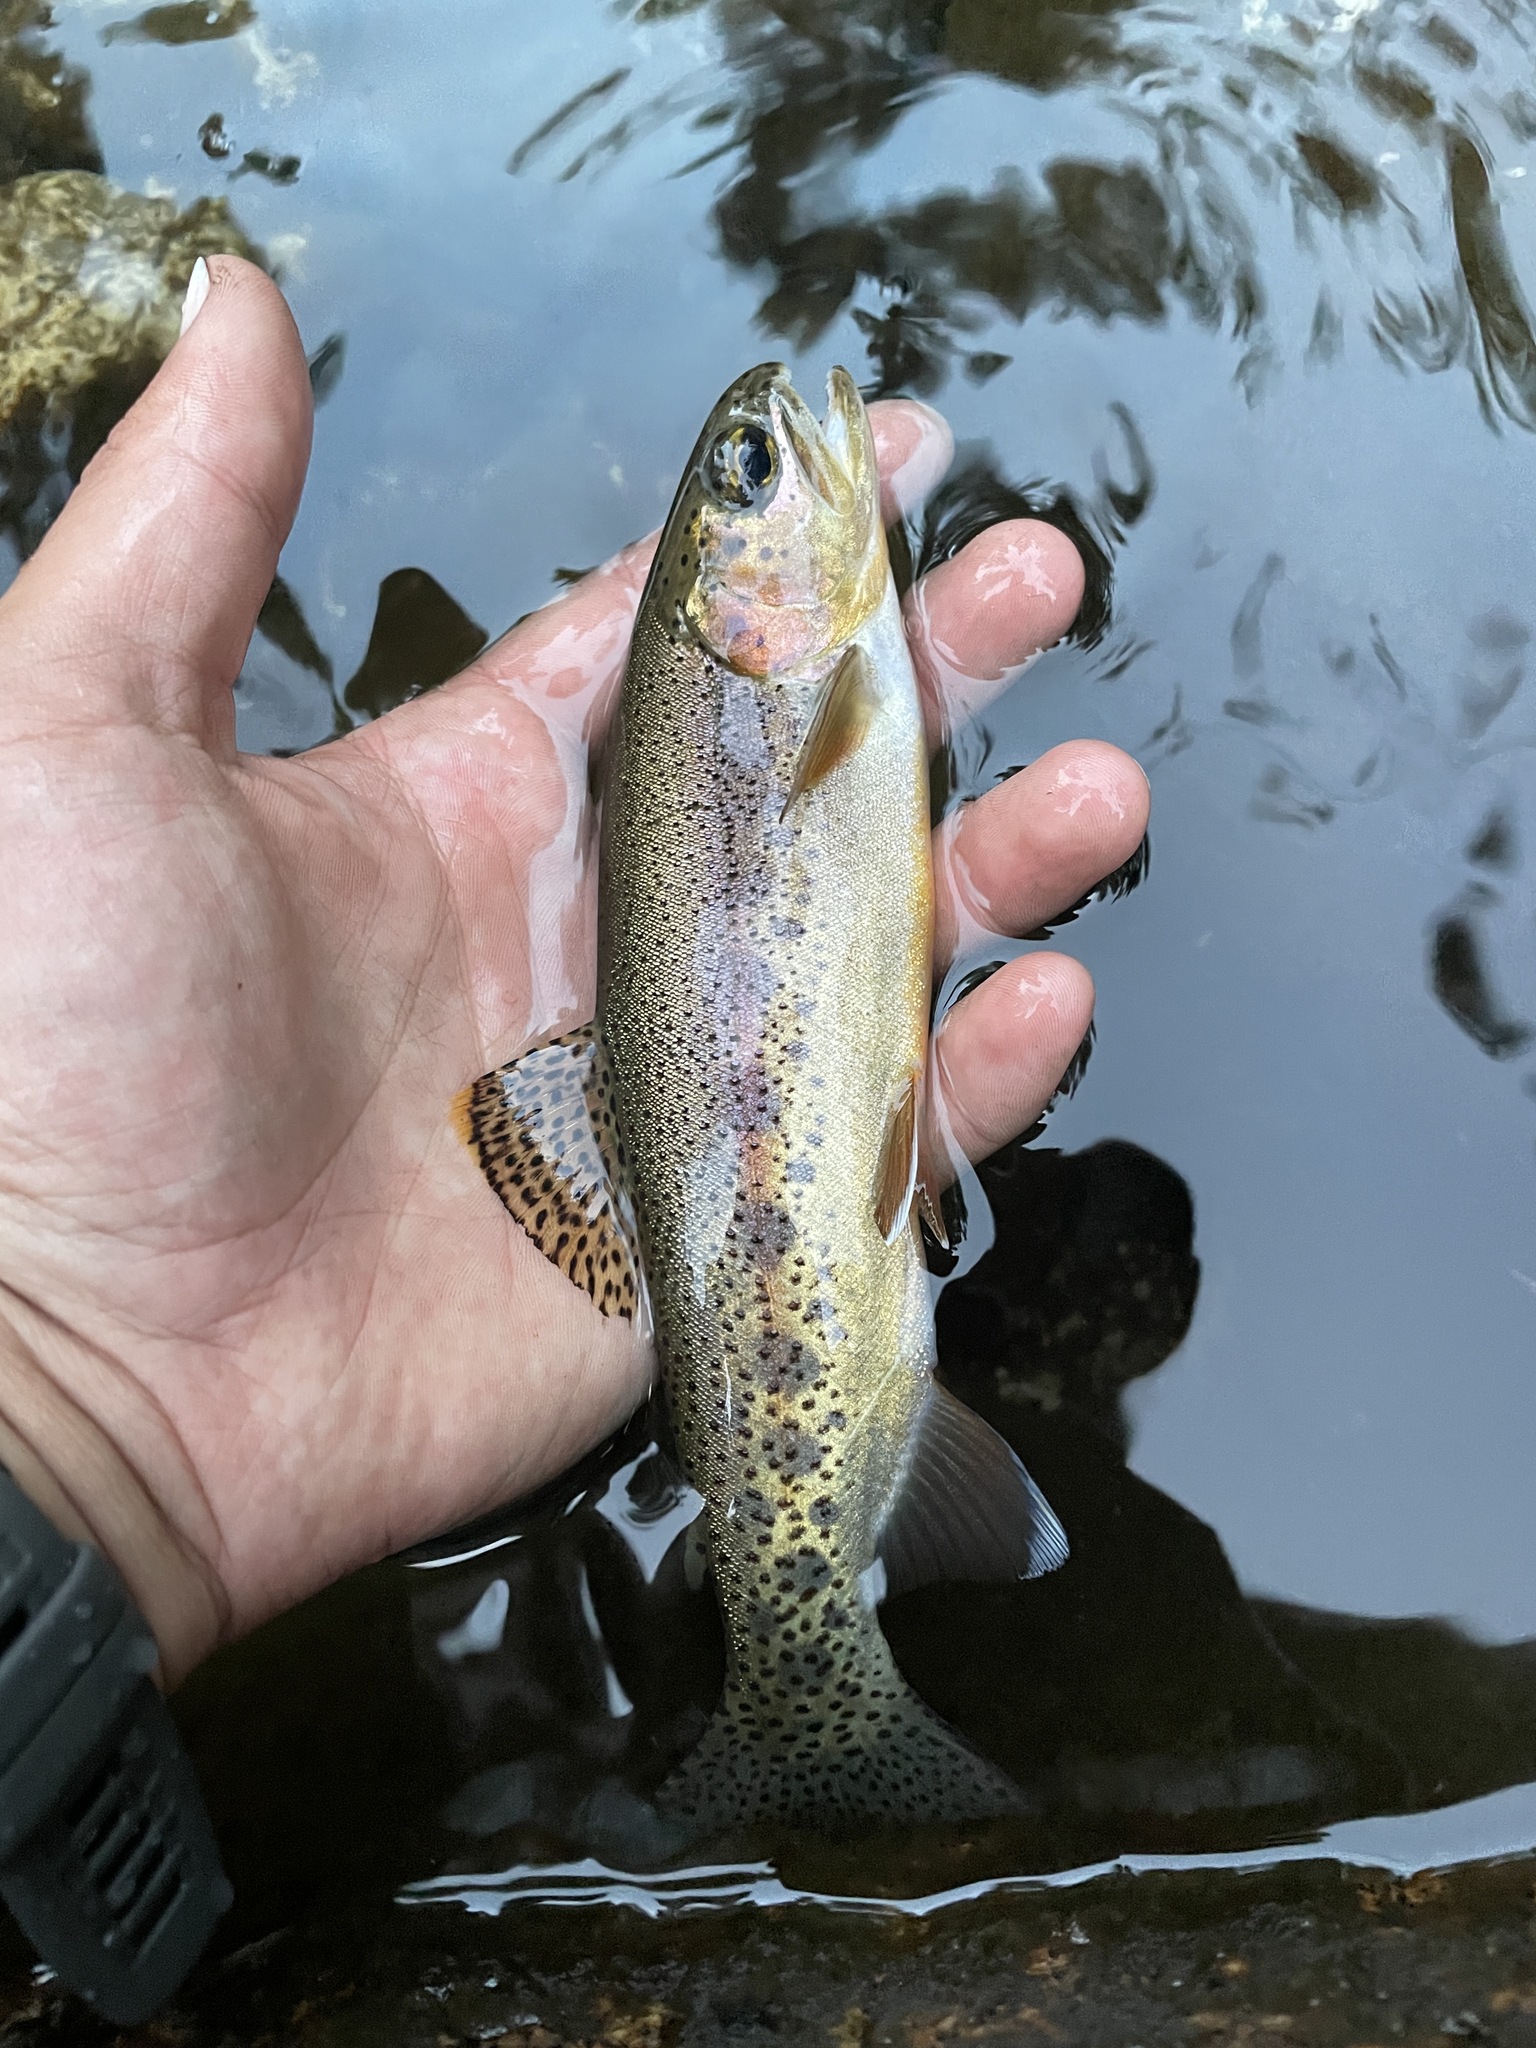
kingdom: Animalia
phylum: Chordata
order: Salmoniformes
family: Salmonidae
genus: Oncorhynchus
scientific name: Oncorhynchus mykiss
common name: Rainbow trout
